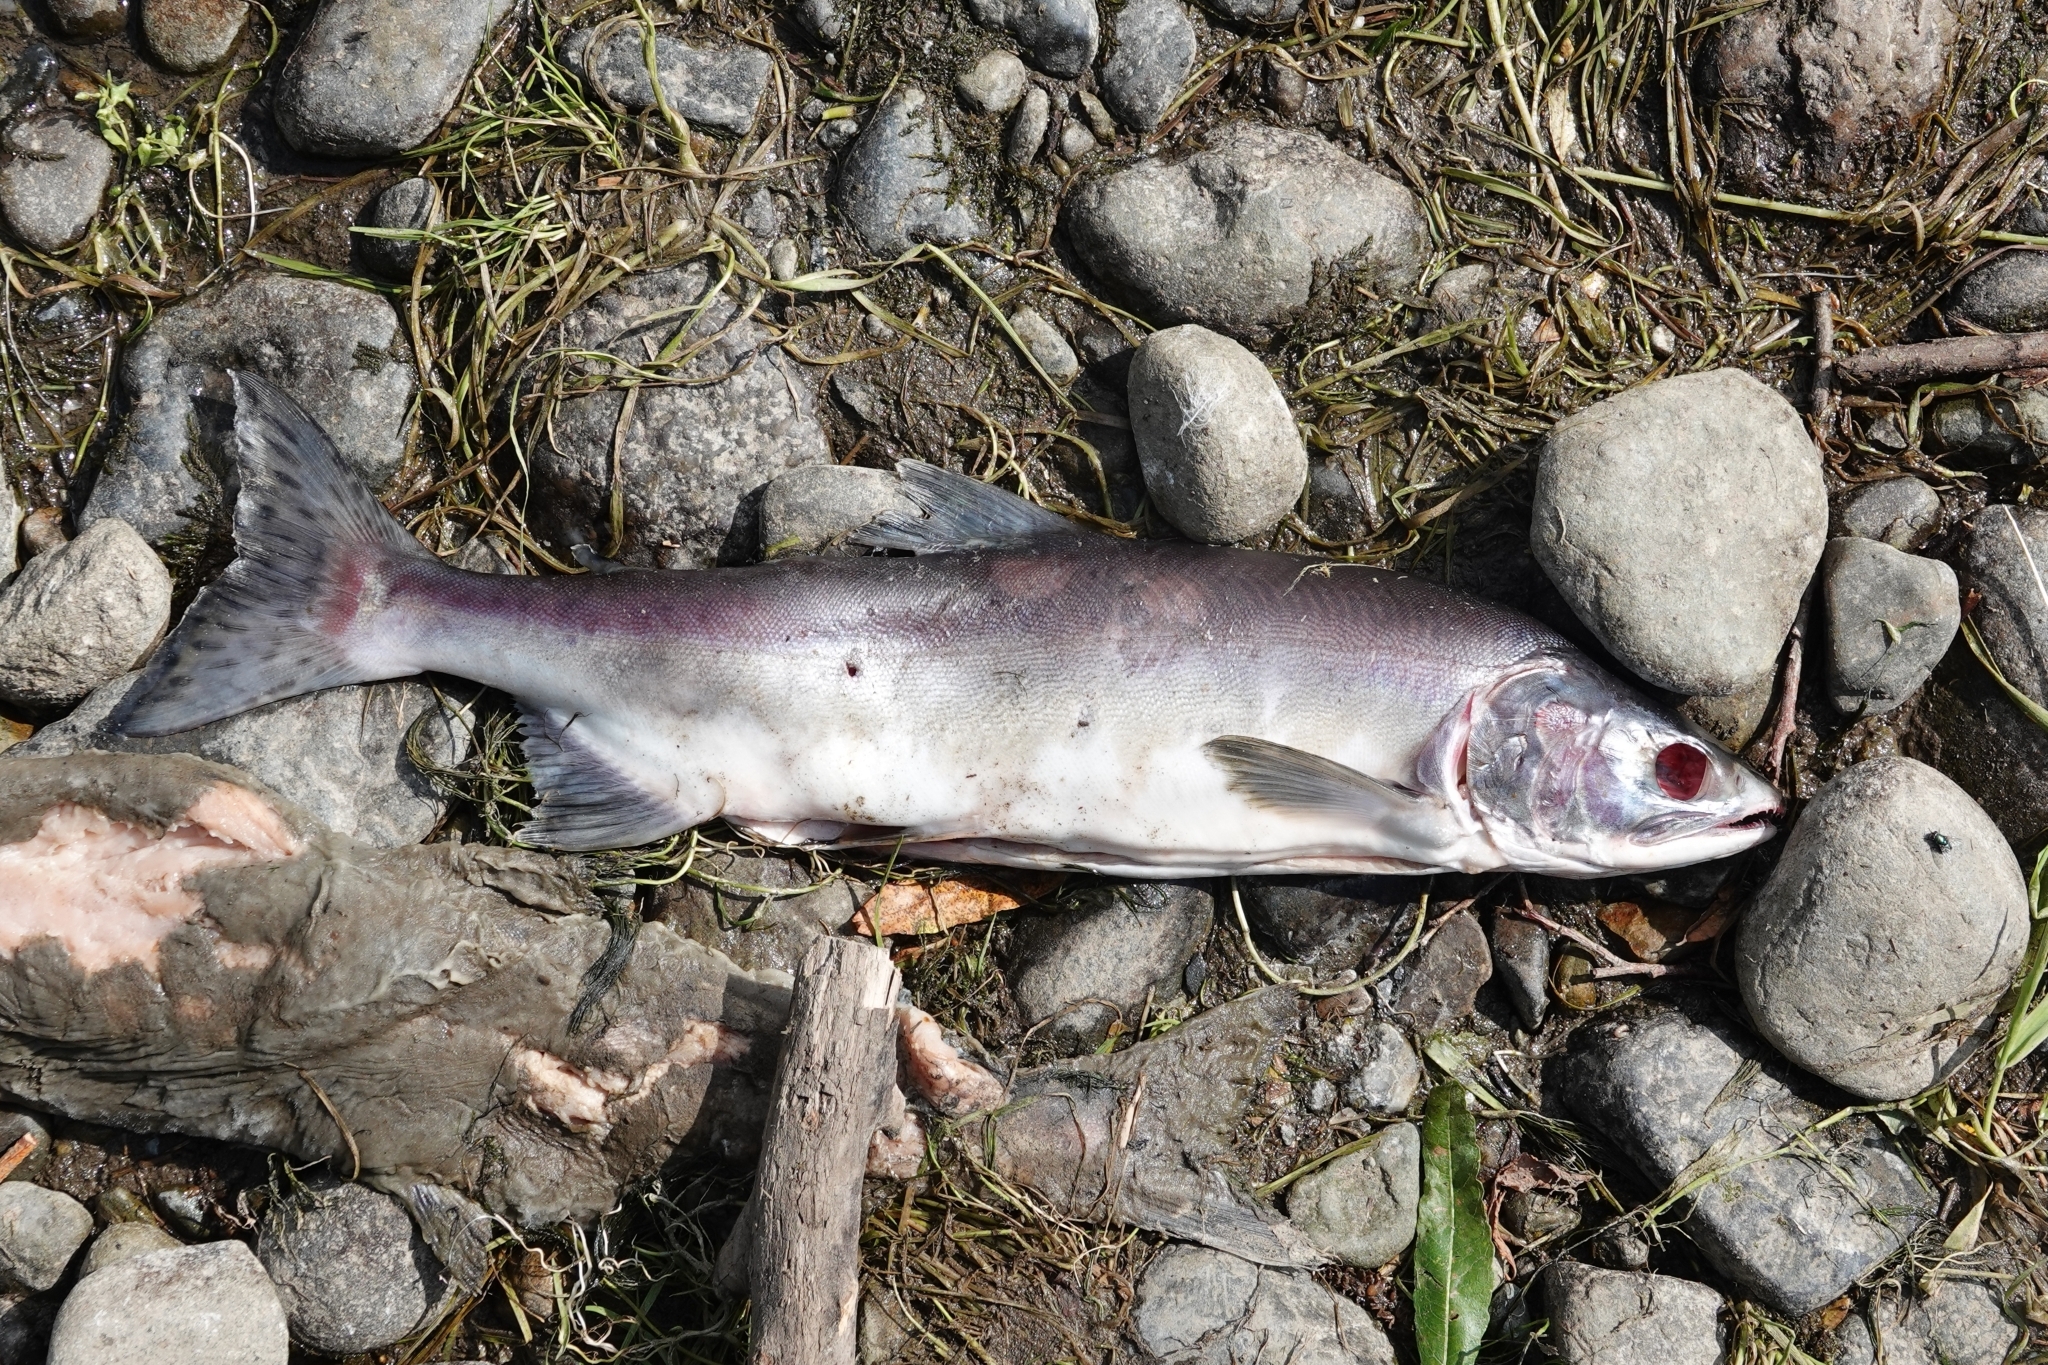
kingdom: Animalia
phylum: Chordata
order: Salmoniformes
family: Salmonidae
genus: Oncorhynchus
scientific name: Oncorhynchus gorbuscha
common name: Humpback salmon
